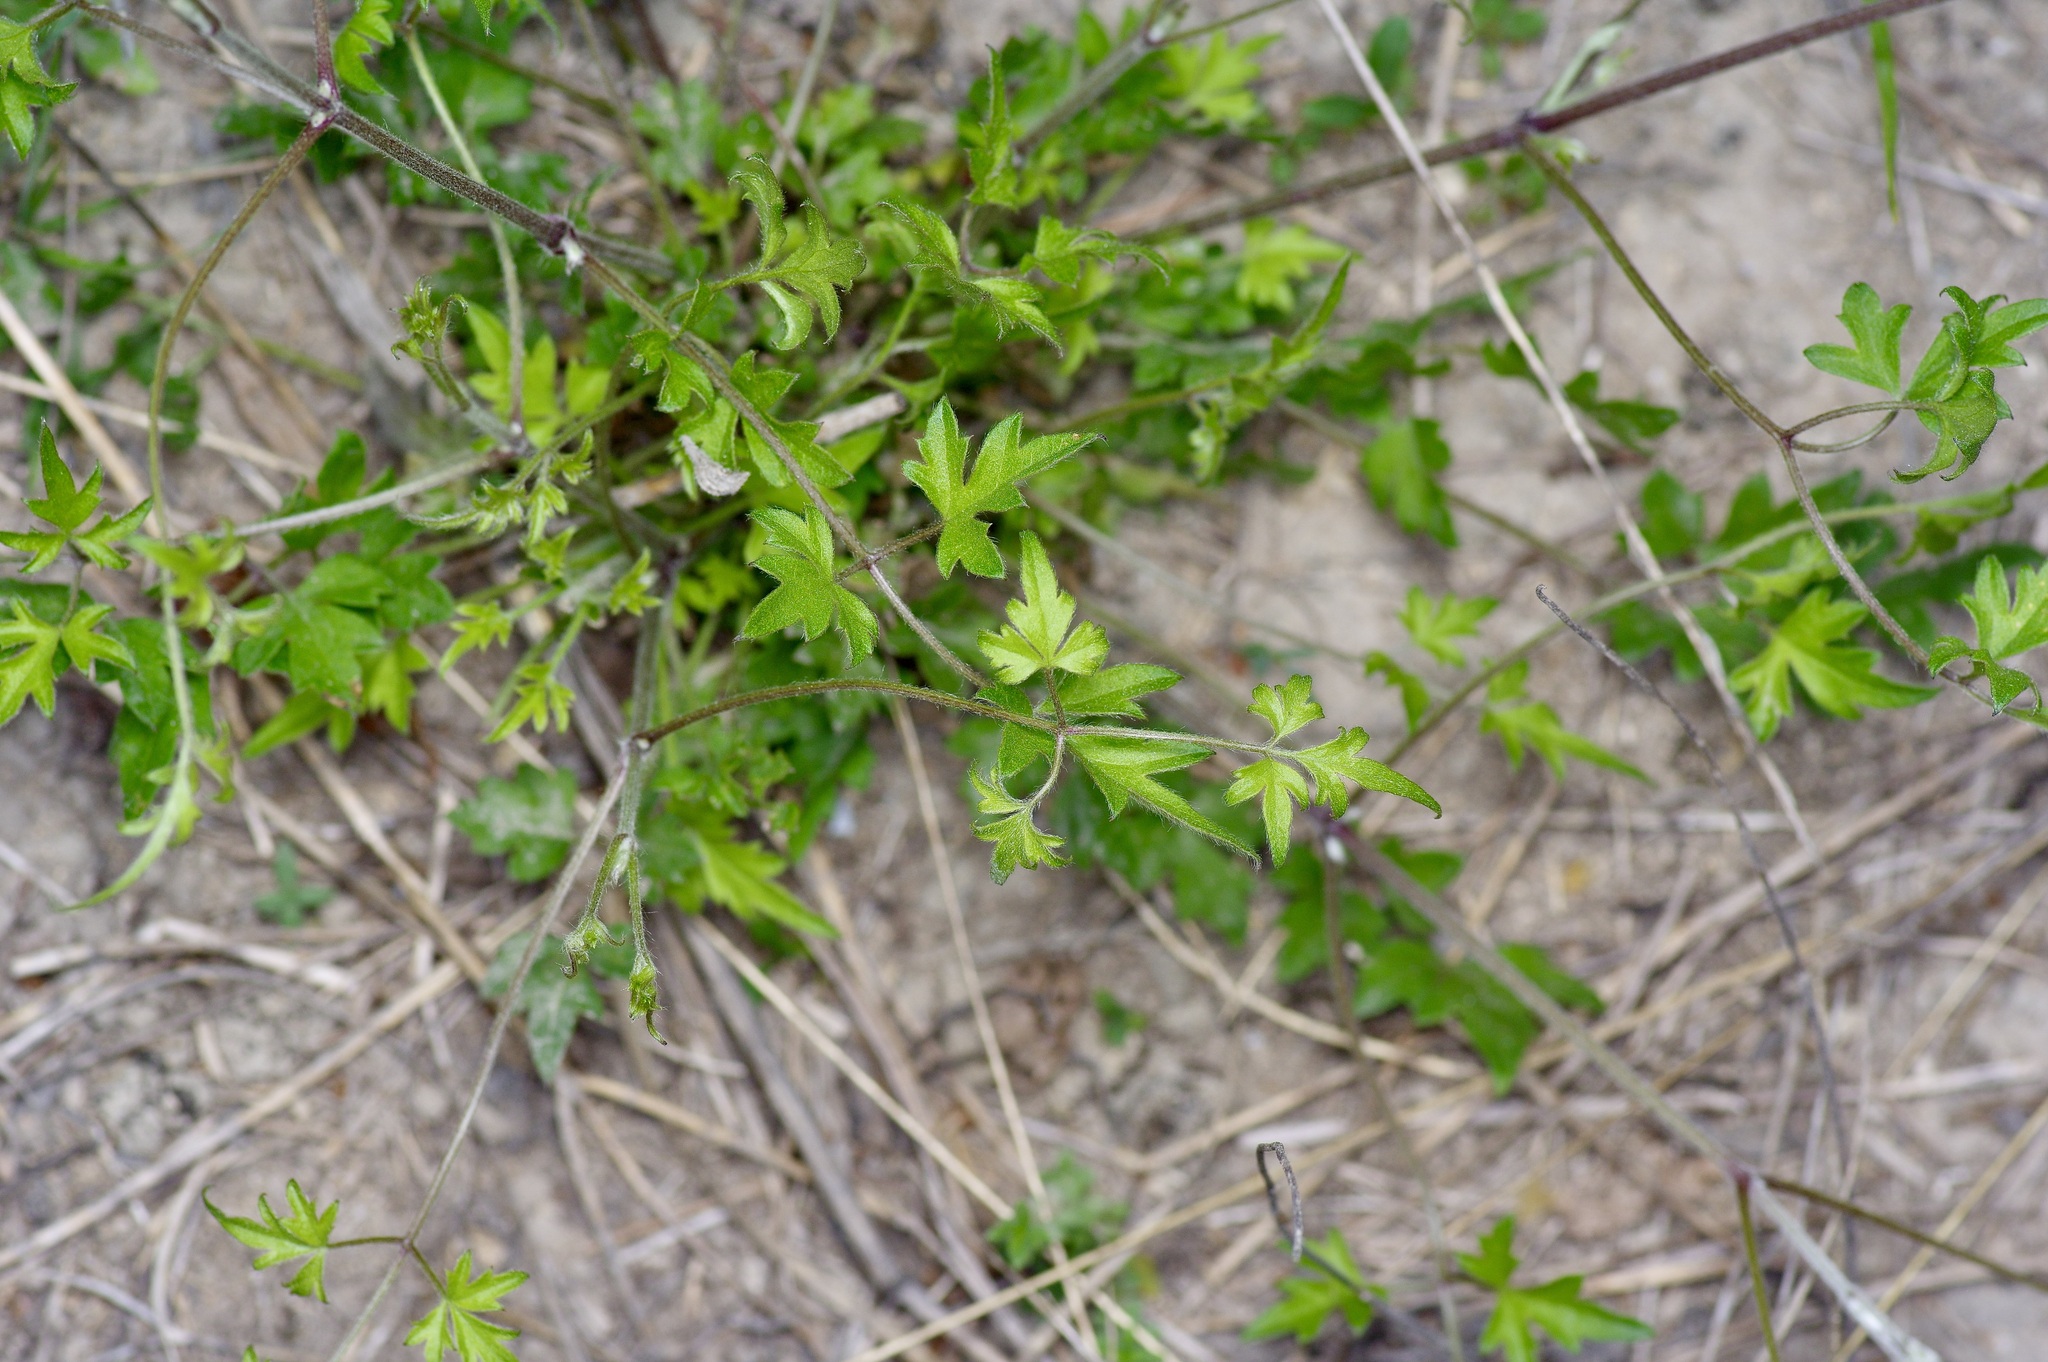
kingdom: Plantae
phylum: Tracheophyta
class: Magnoliopsida
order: Ranunculales
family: Ranunculaceae
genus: Clematis
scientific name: Clematis drummondii
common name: Texas virgin's bower
